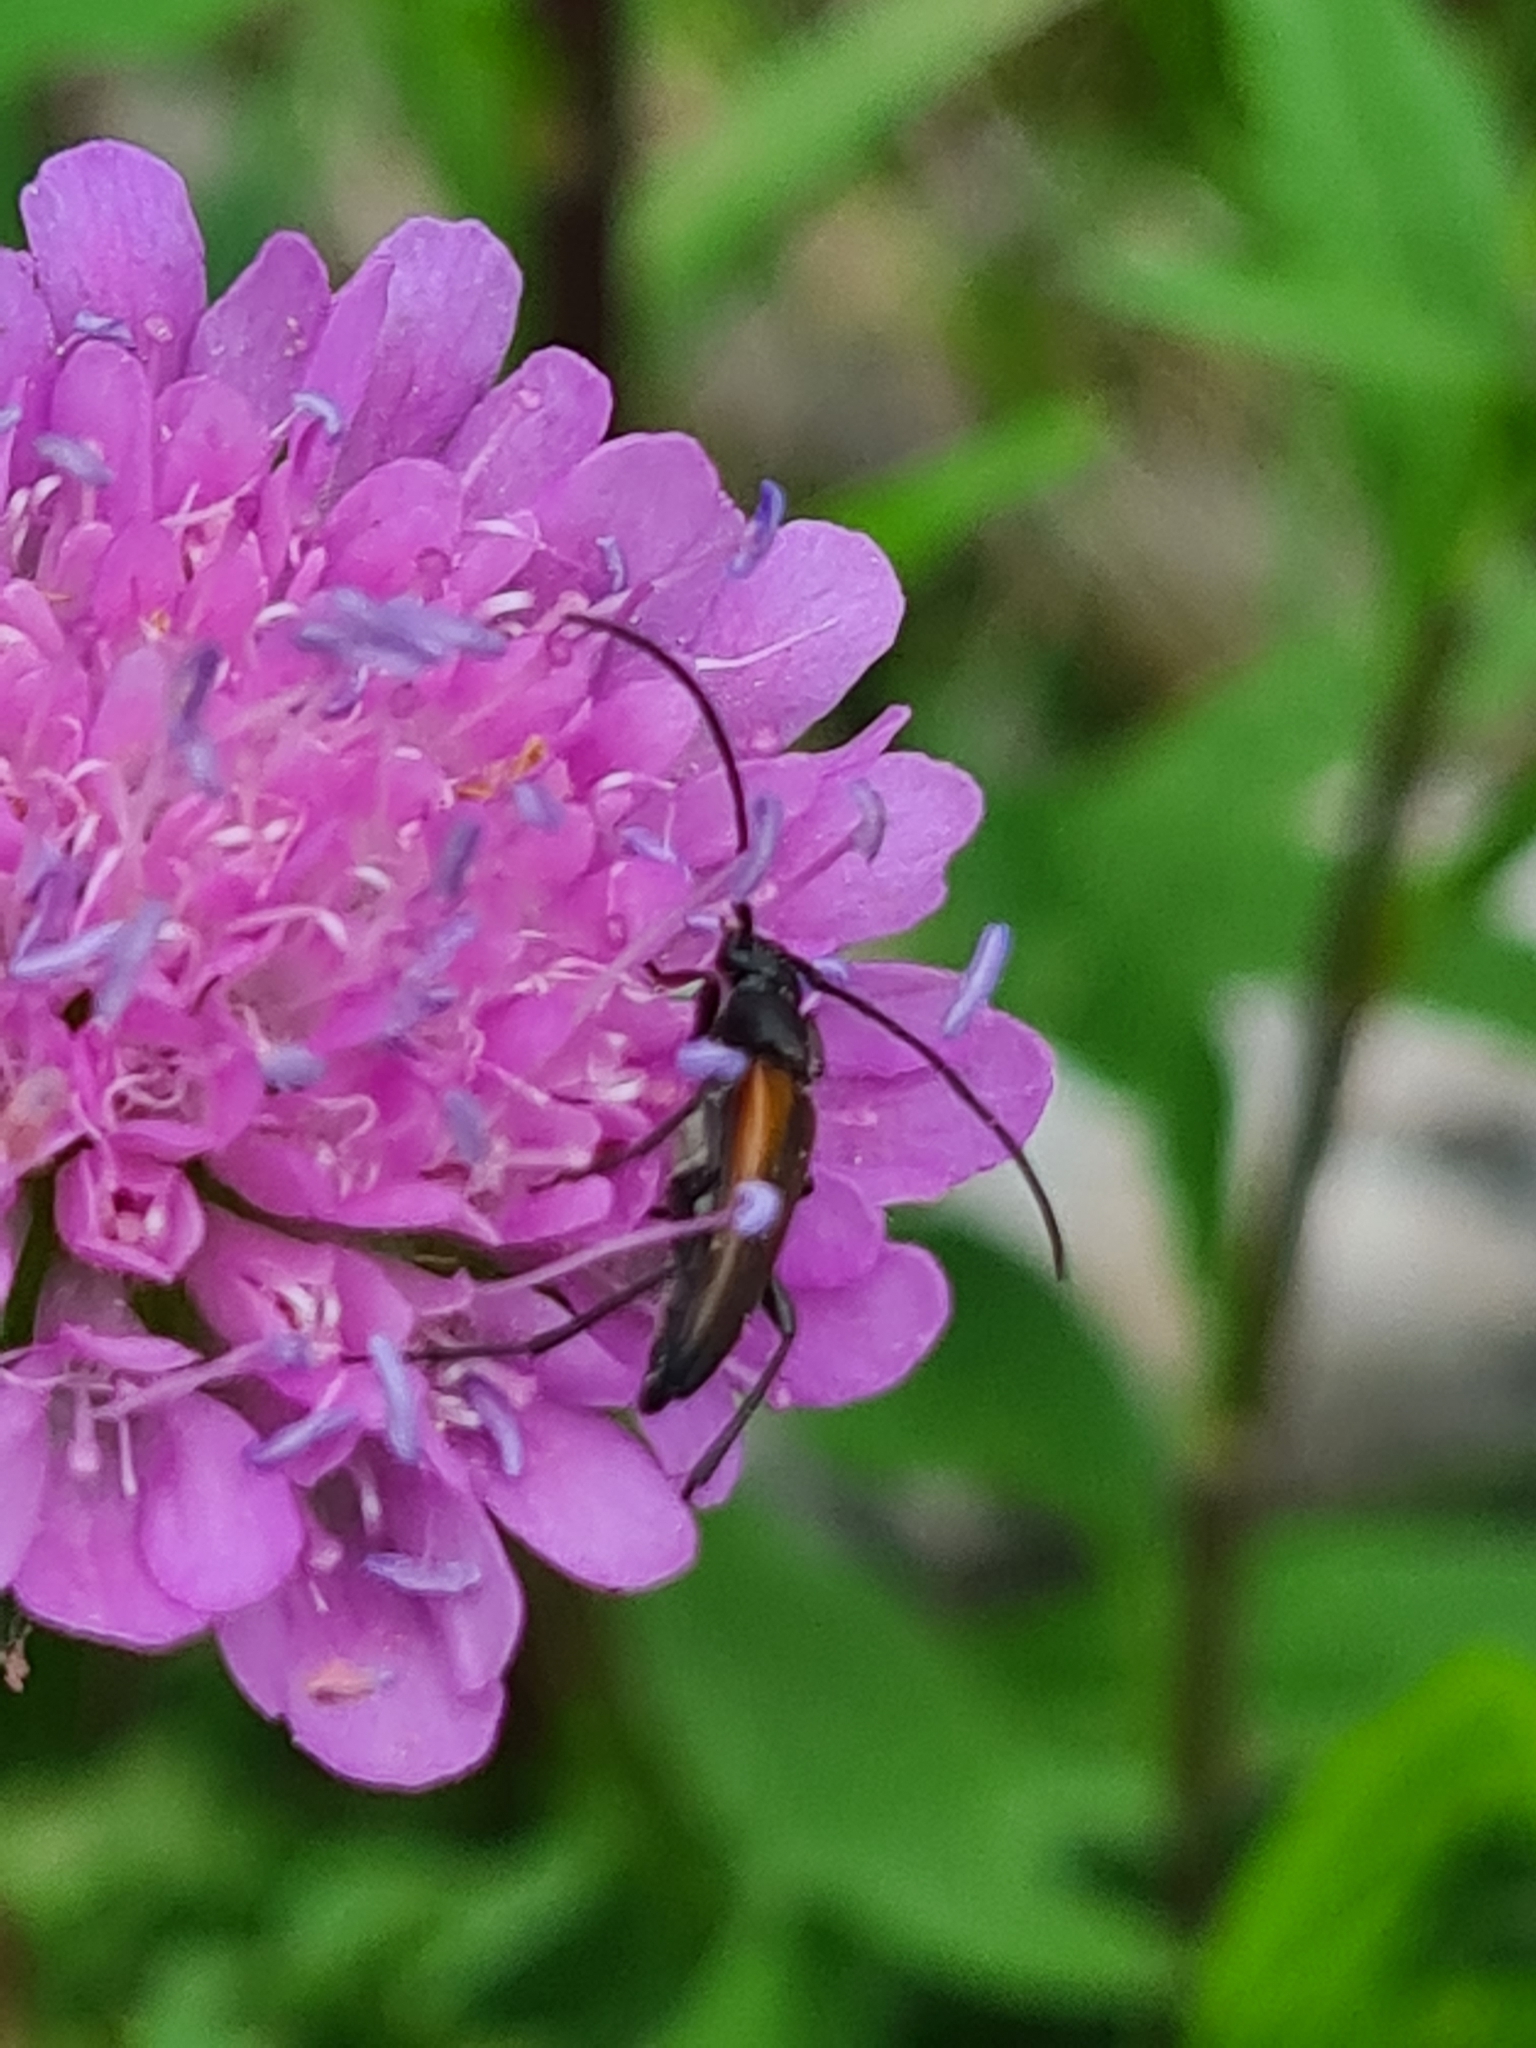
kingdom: Animalia
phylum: Arthropoda
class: Insecta
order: Coleoptera
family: Cerambycidae
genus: Stenurella
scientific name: Stenurella melanura
